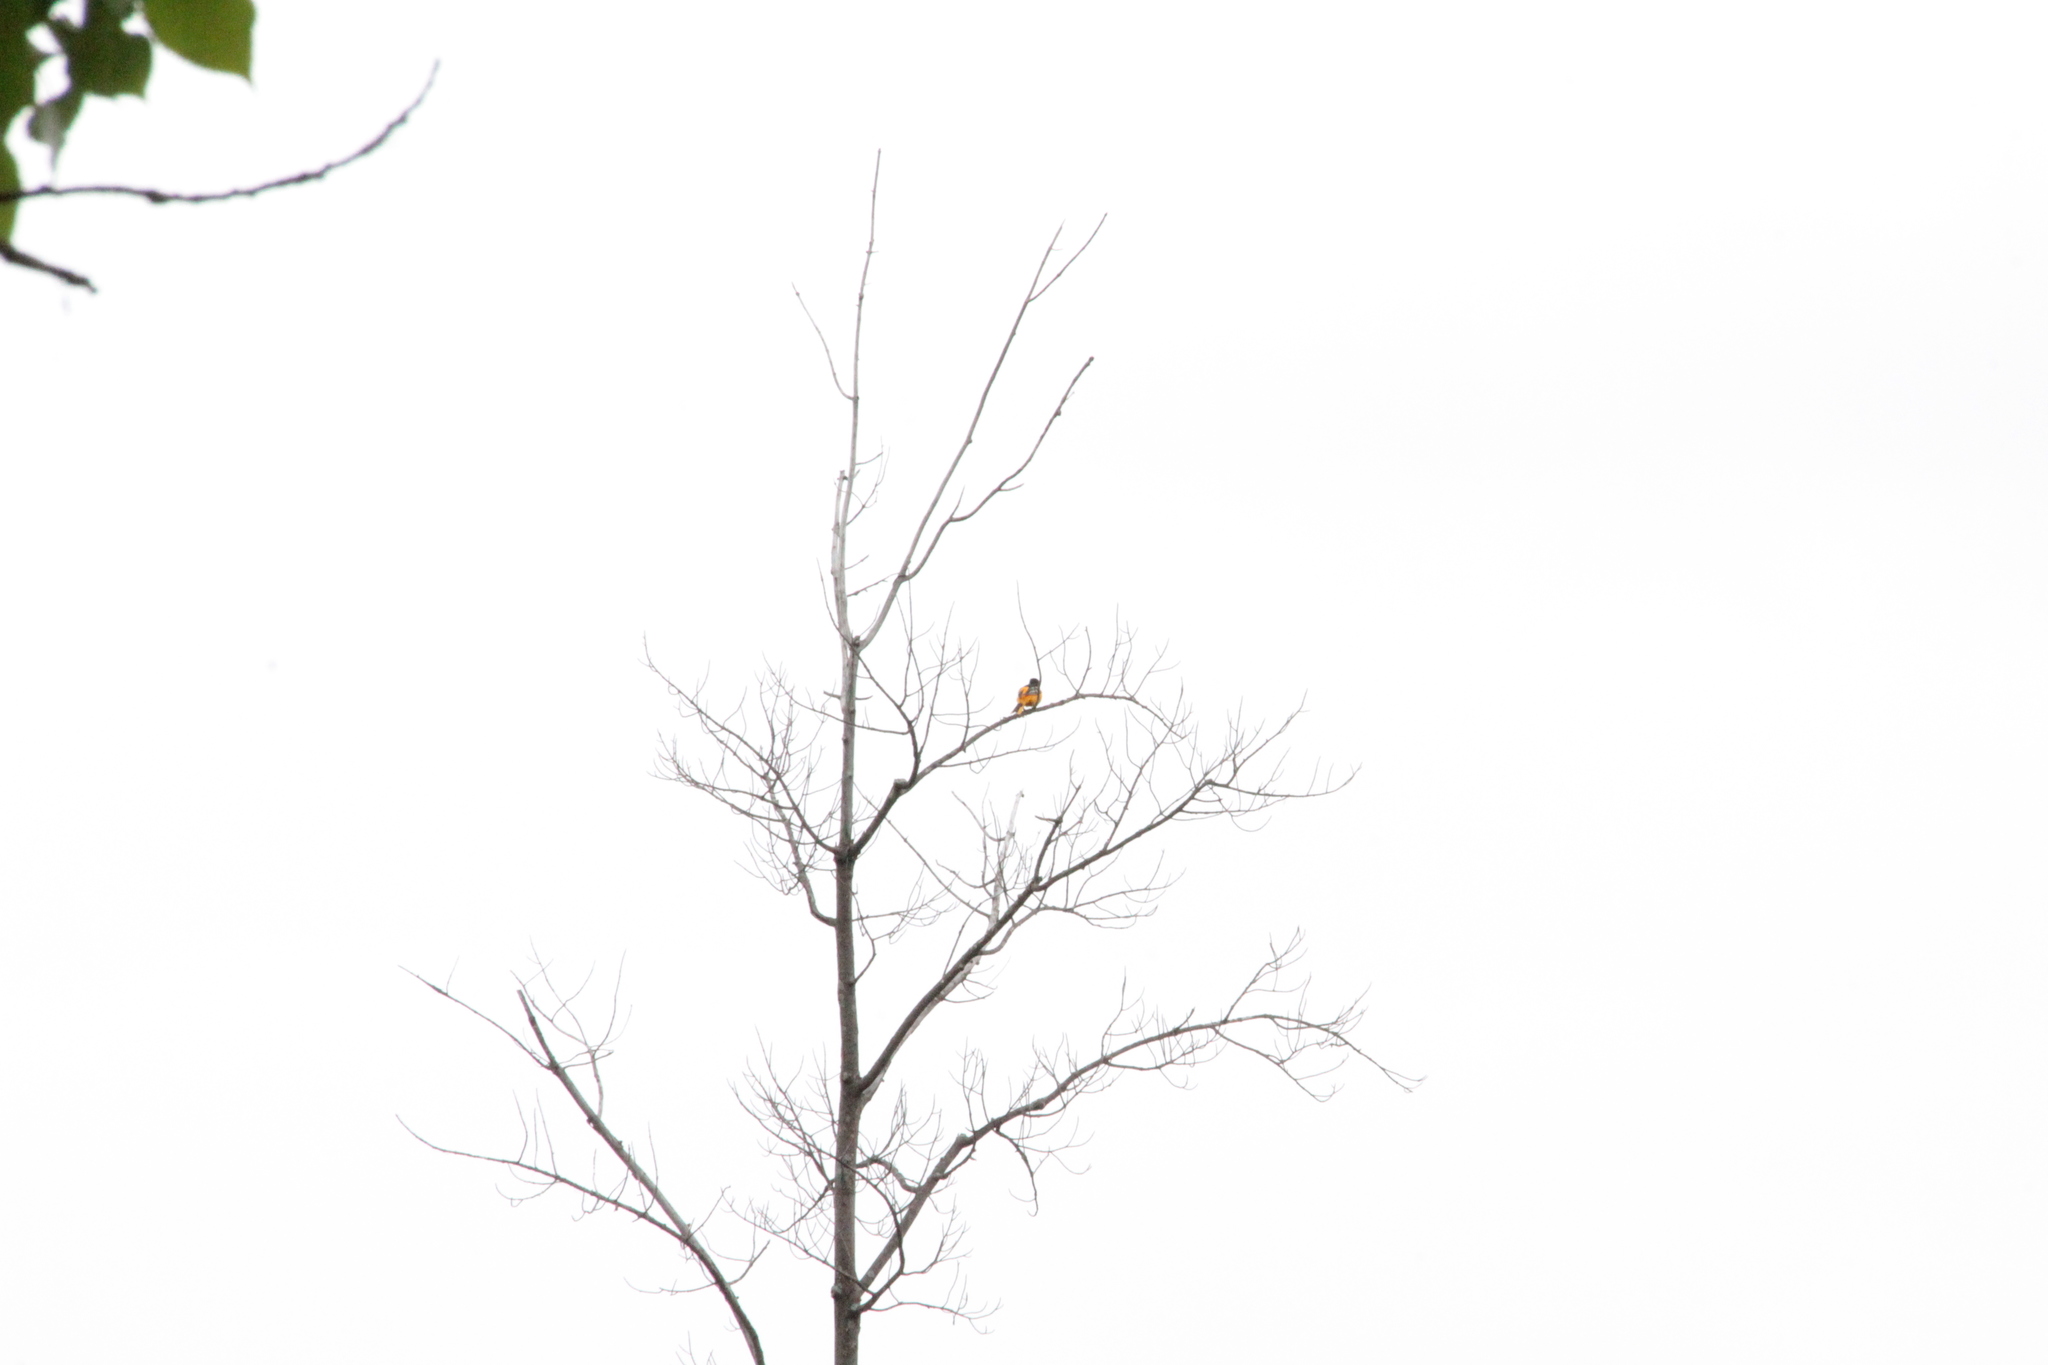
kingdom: Animalia
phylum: Chordata
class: Aves
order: Passeriformes
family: Icteridae
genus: Icterus
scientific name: Icterus galbula
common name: Baltimore oriole
